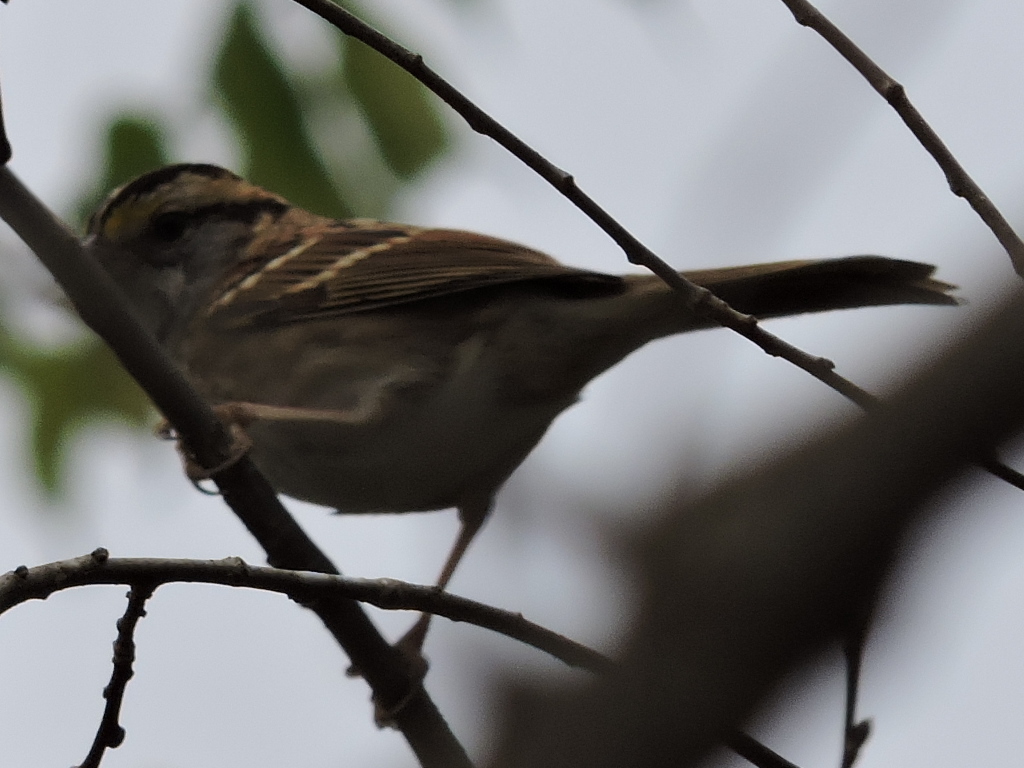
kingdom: Animalia
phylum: Chordata
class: Aves
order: Passeriformes
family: Passerellidae
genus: Zonotrichia
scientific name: Zonotrichia albicollis
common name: White-throated sparrow
